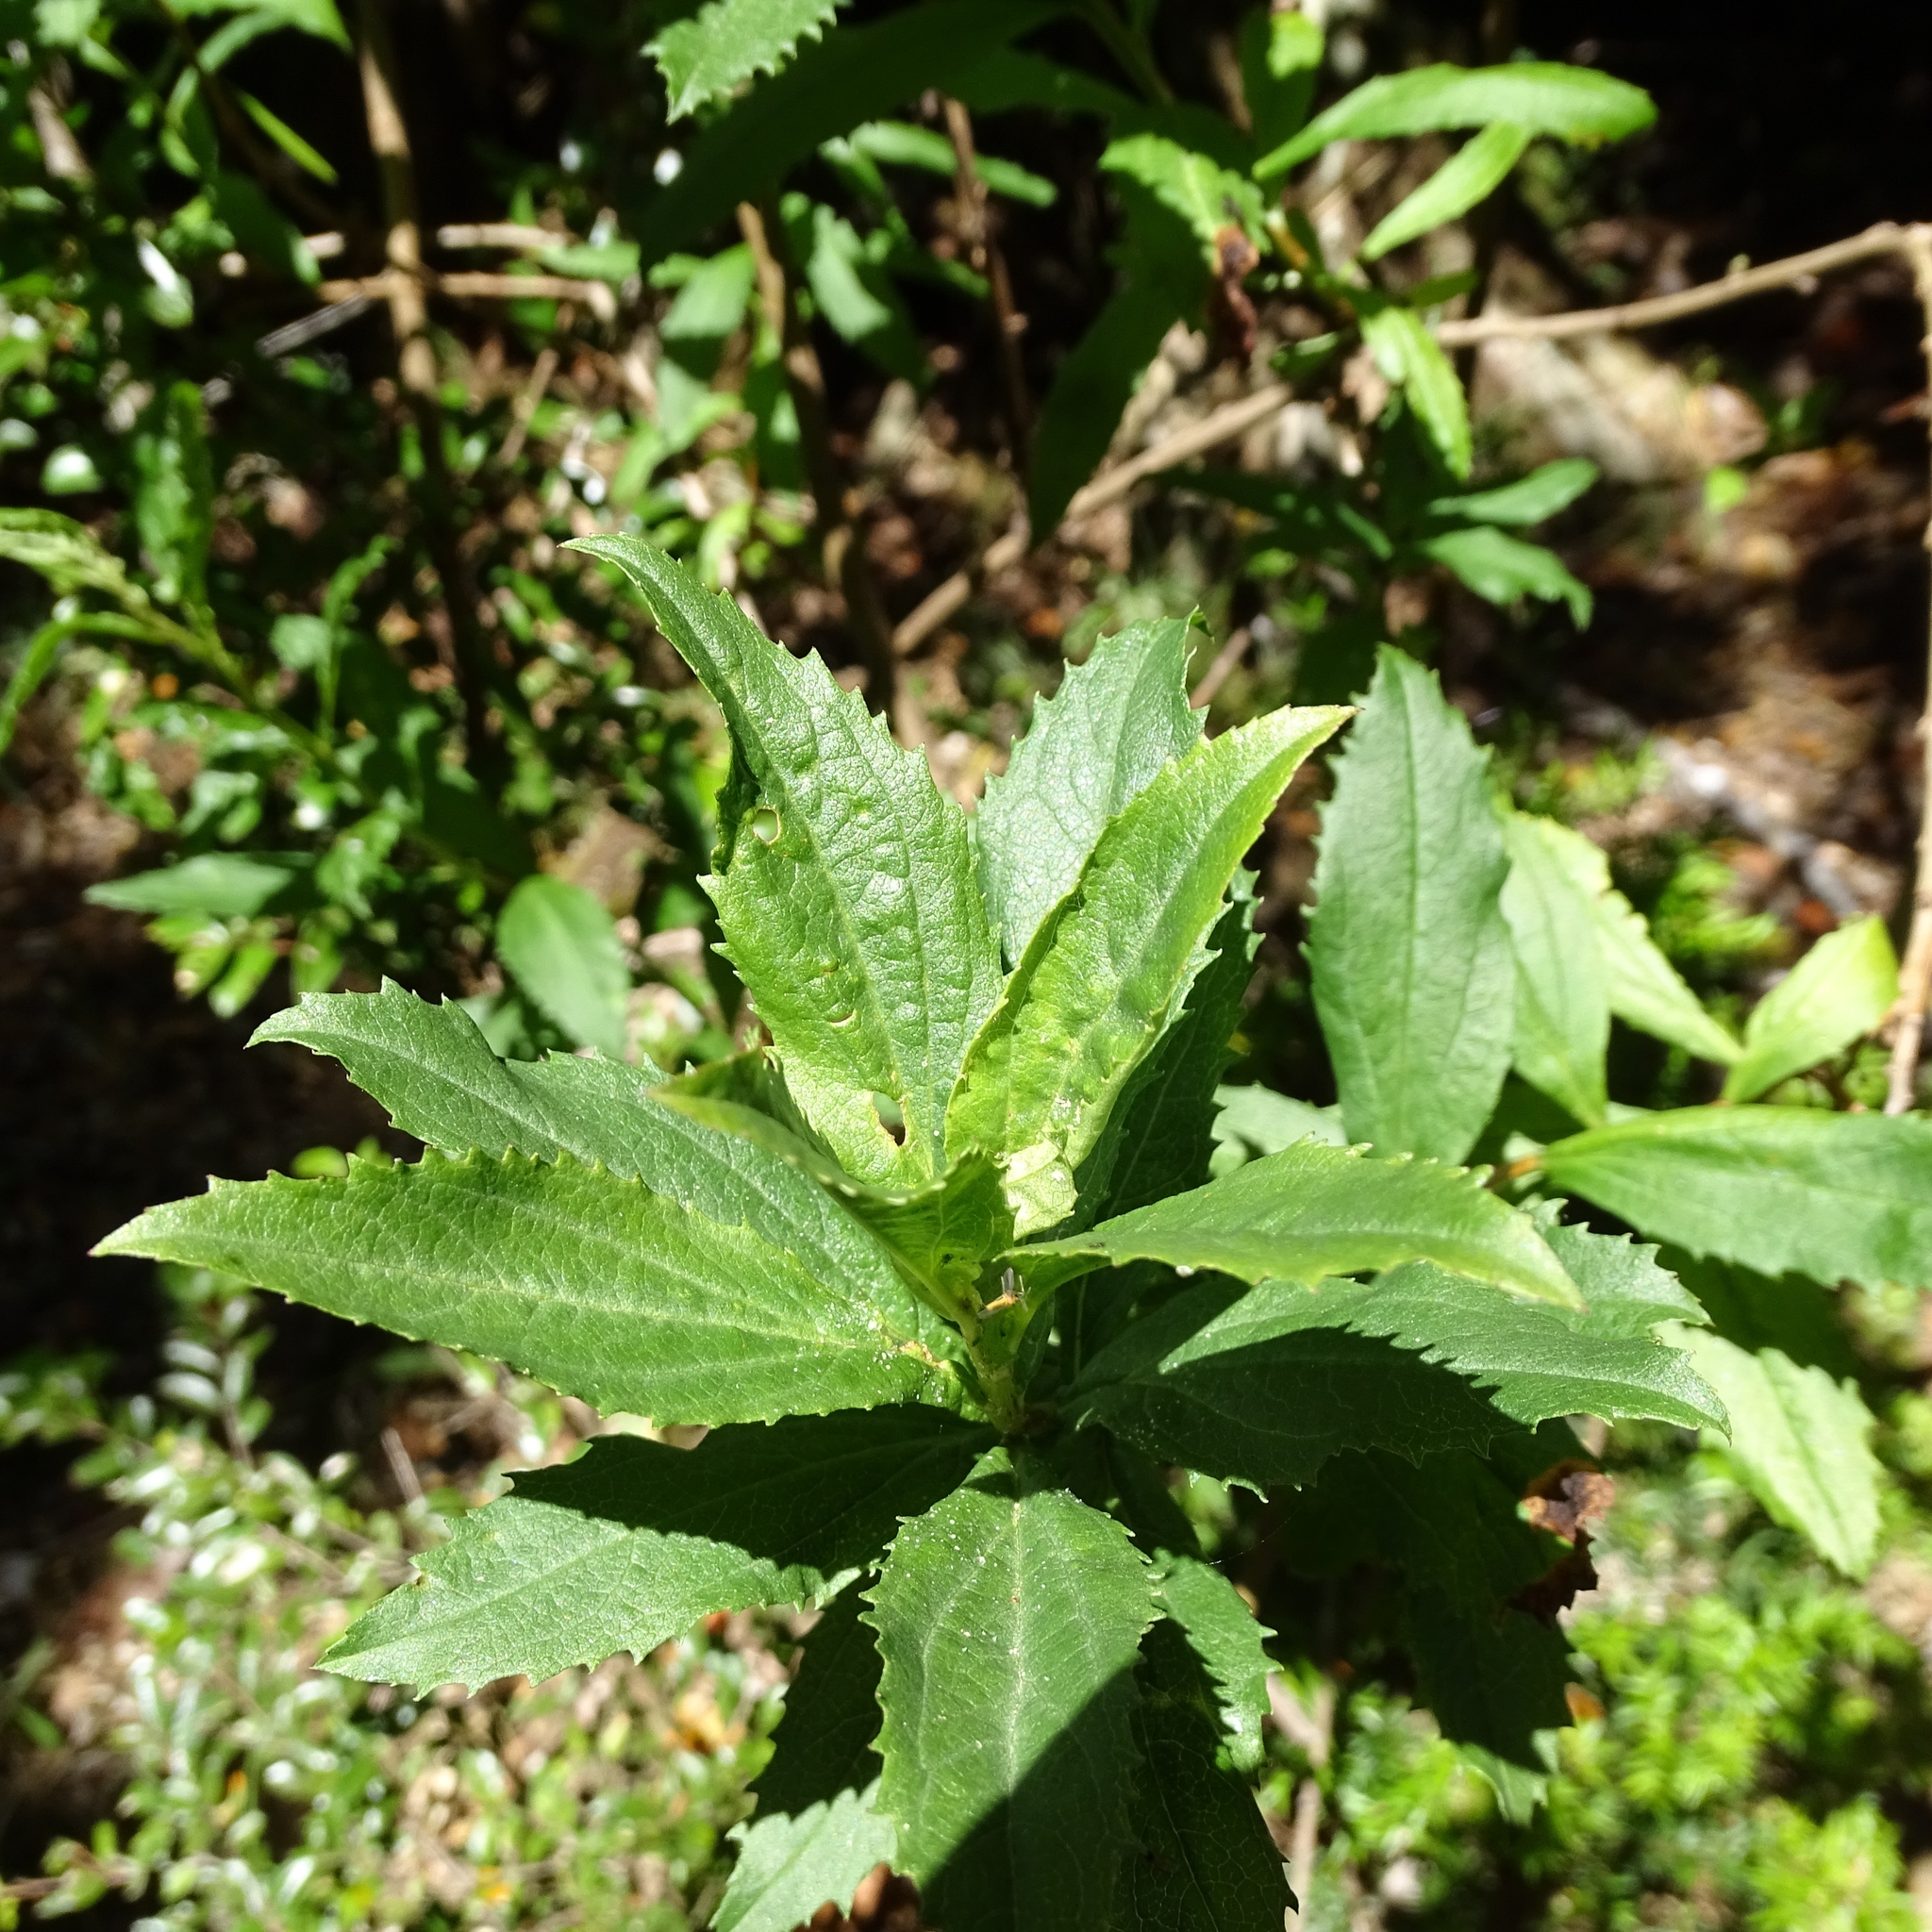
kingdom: Plantae
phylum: Tracheophyta
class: Magnoliopsida
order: Asterales
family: Asteraceae
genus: Baccharis
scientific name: Baccharis sphaerocephala
